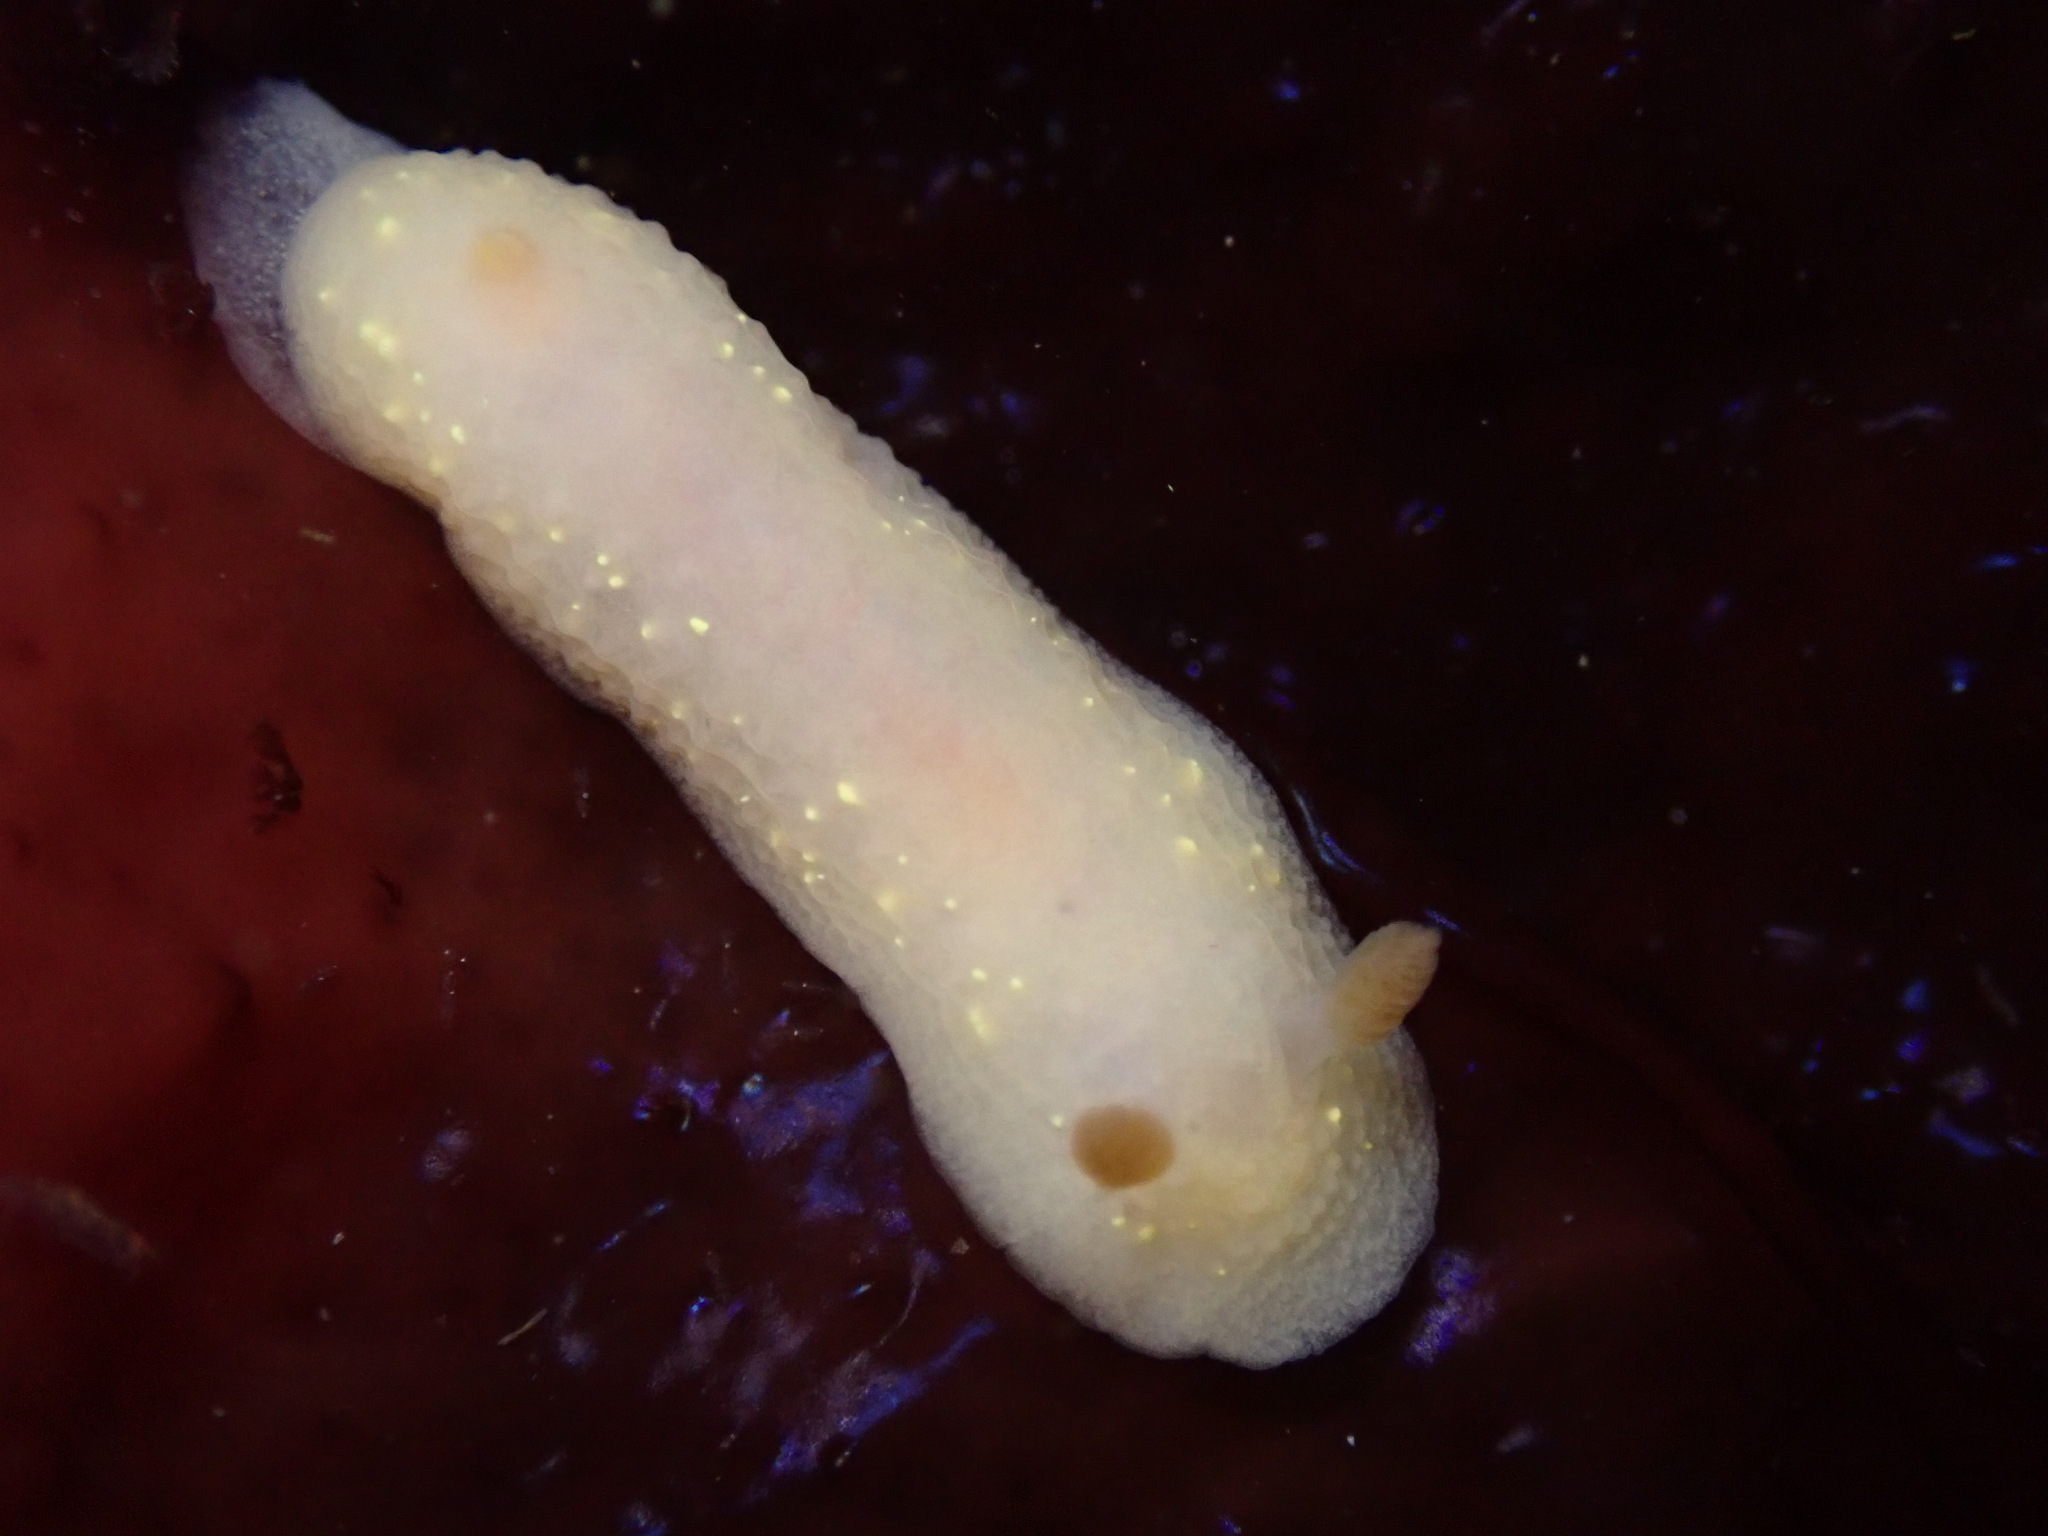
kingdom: Animalia
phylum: Mollusca
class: Gastropoda
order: Nudibranchia
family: Cadlinidae
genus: Cadlina
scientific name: Cadlina modesta
